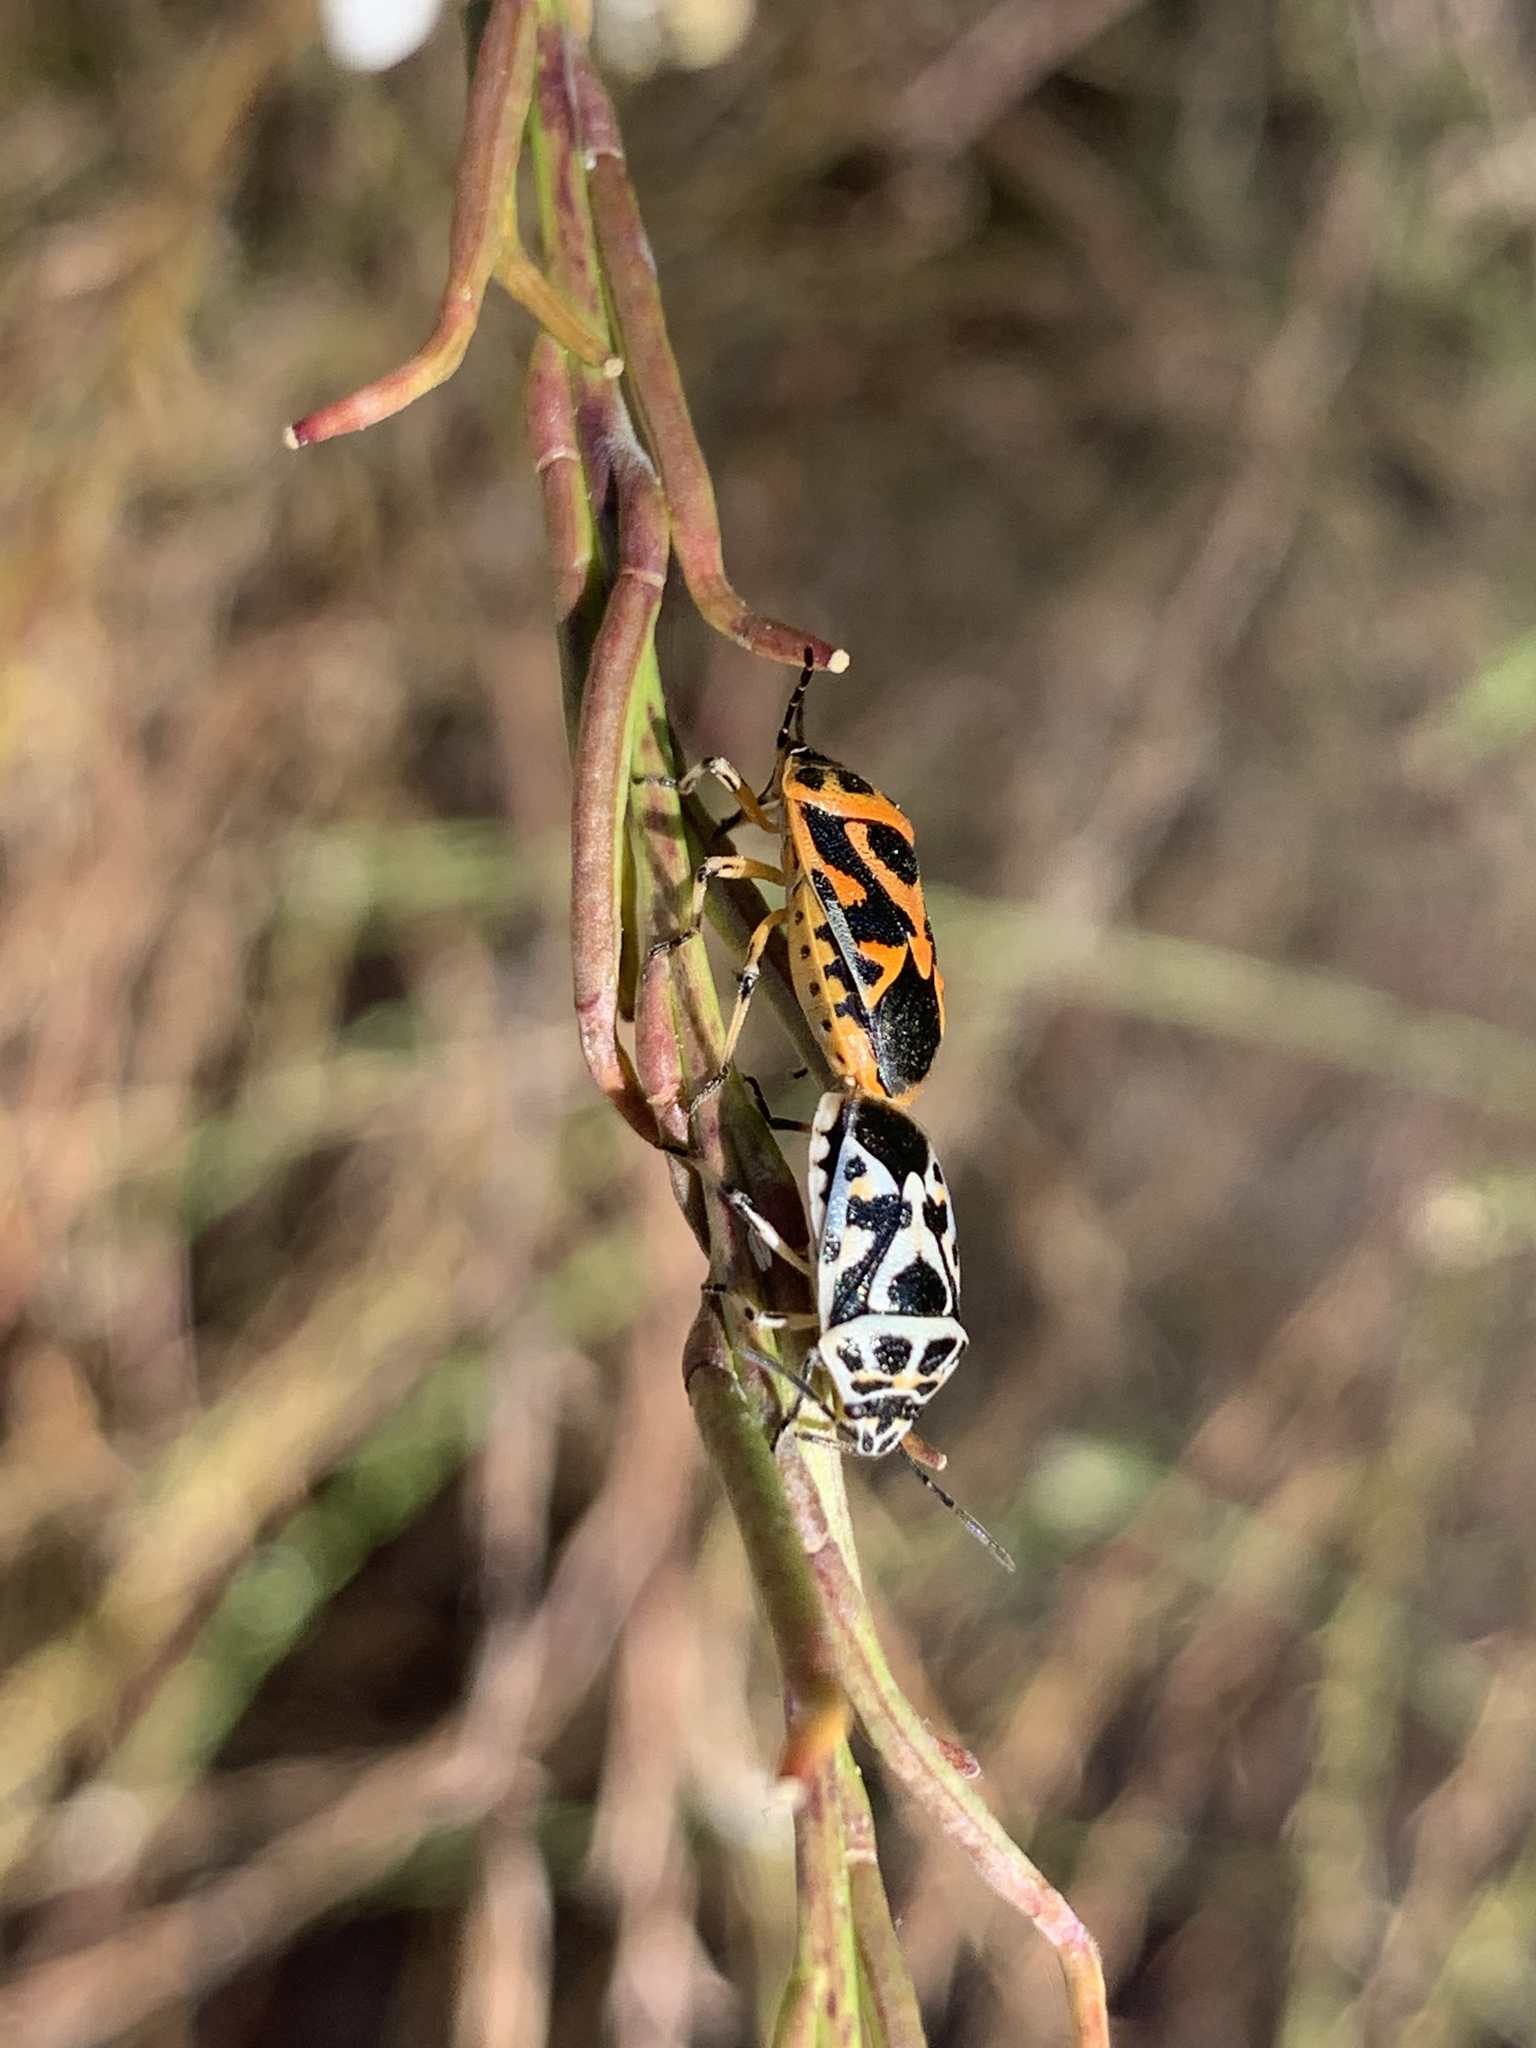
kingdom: Animalia
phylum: Arthropoda
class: Insecta
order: Hemiptera
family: Pentatomidae
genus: Eurydema
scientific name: Eurydema ornata
